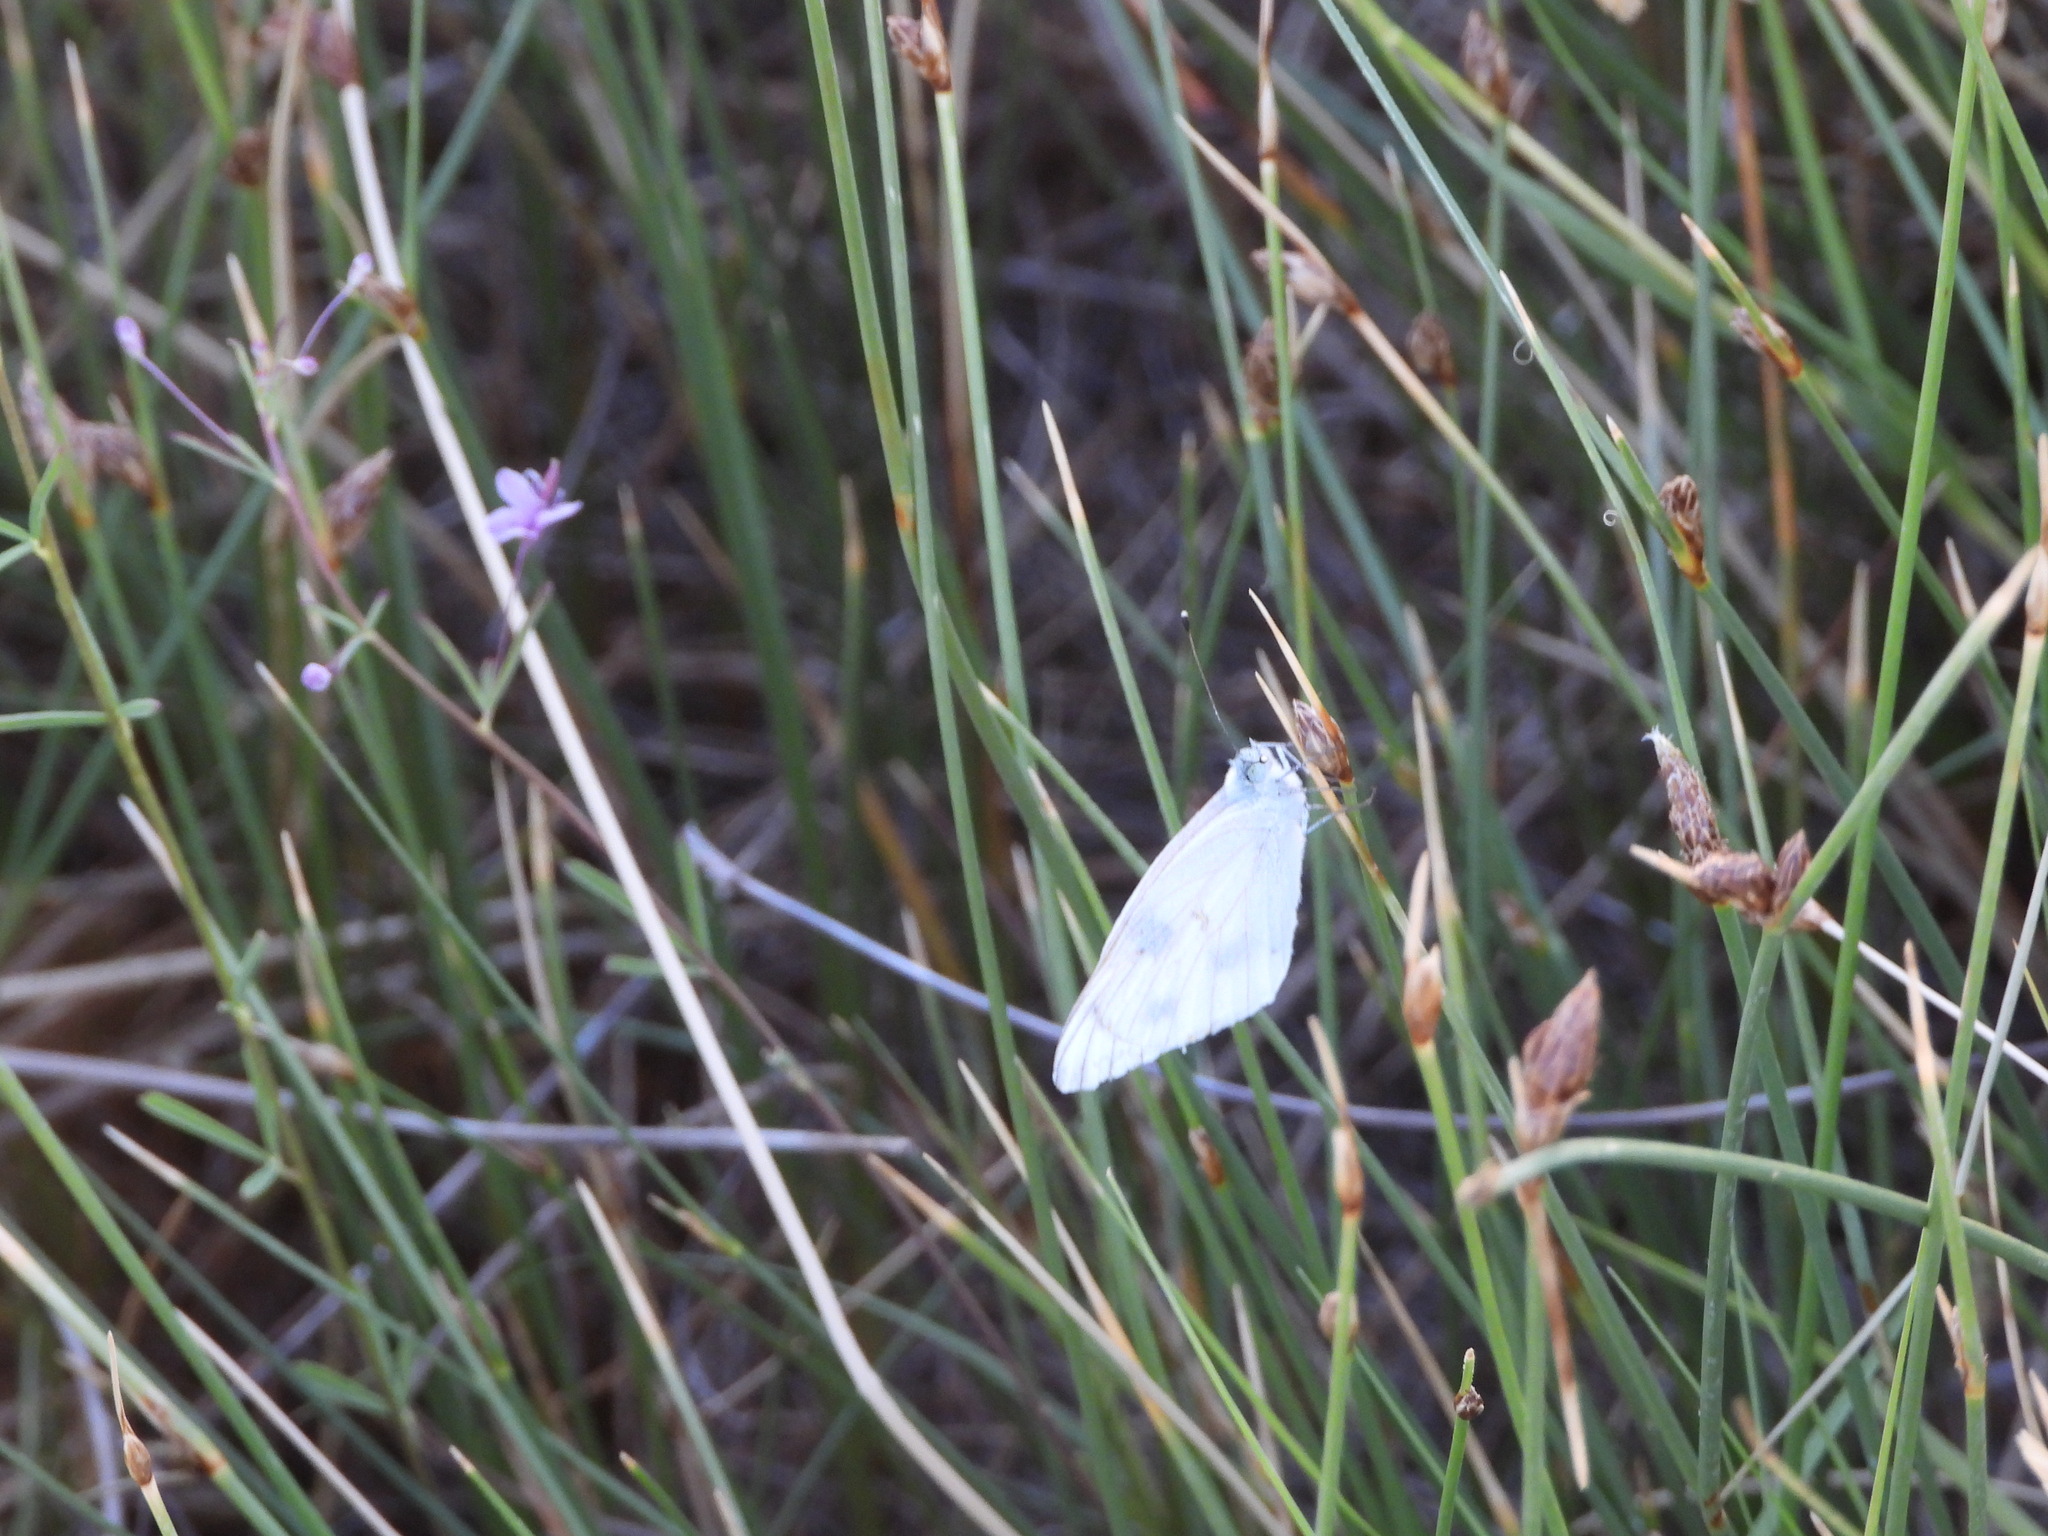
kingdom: Animalia
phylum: Arthropoda
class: Insecta
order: Lepidoptera
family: Pieridae
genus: Pontia
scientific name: Pontia protodice
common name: Checkered white
